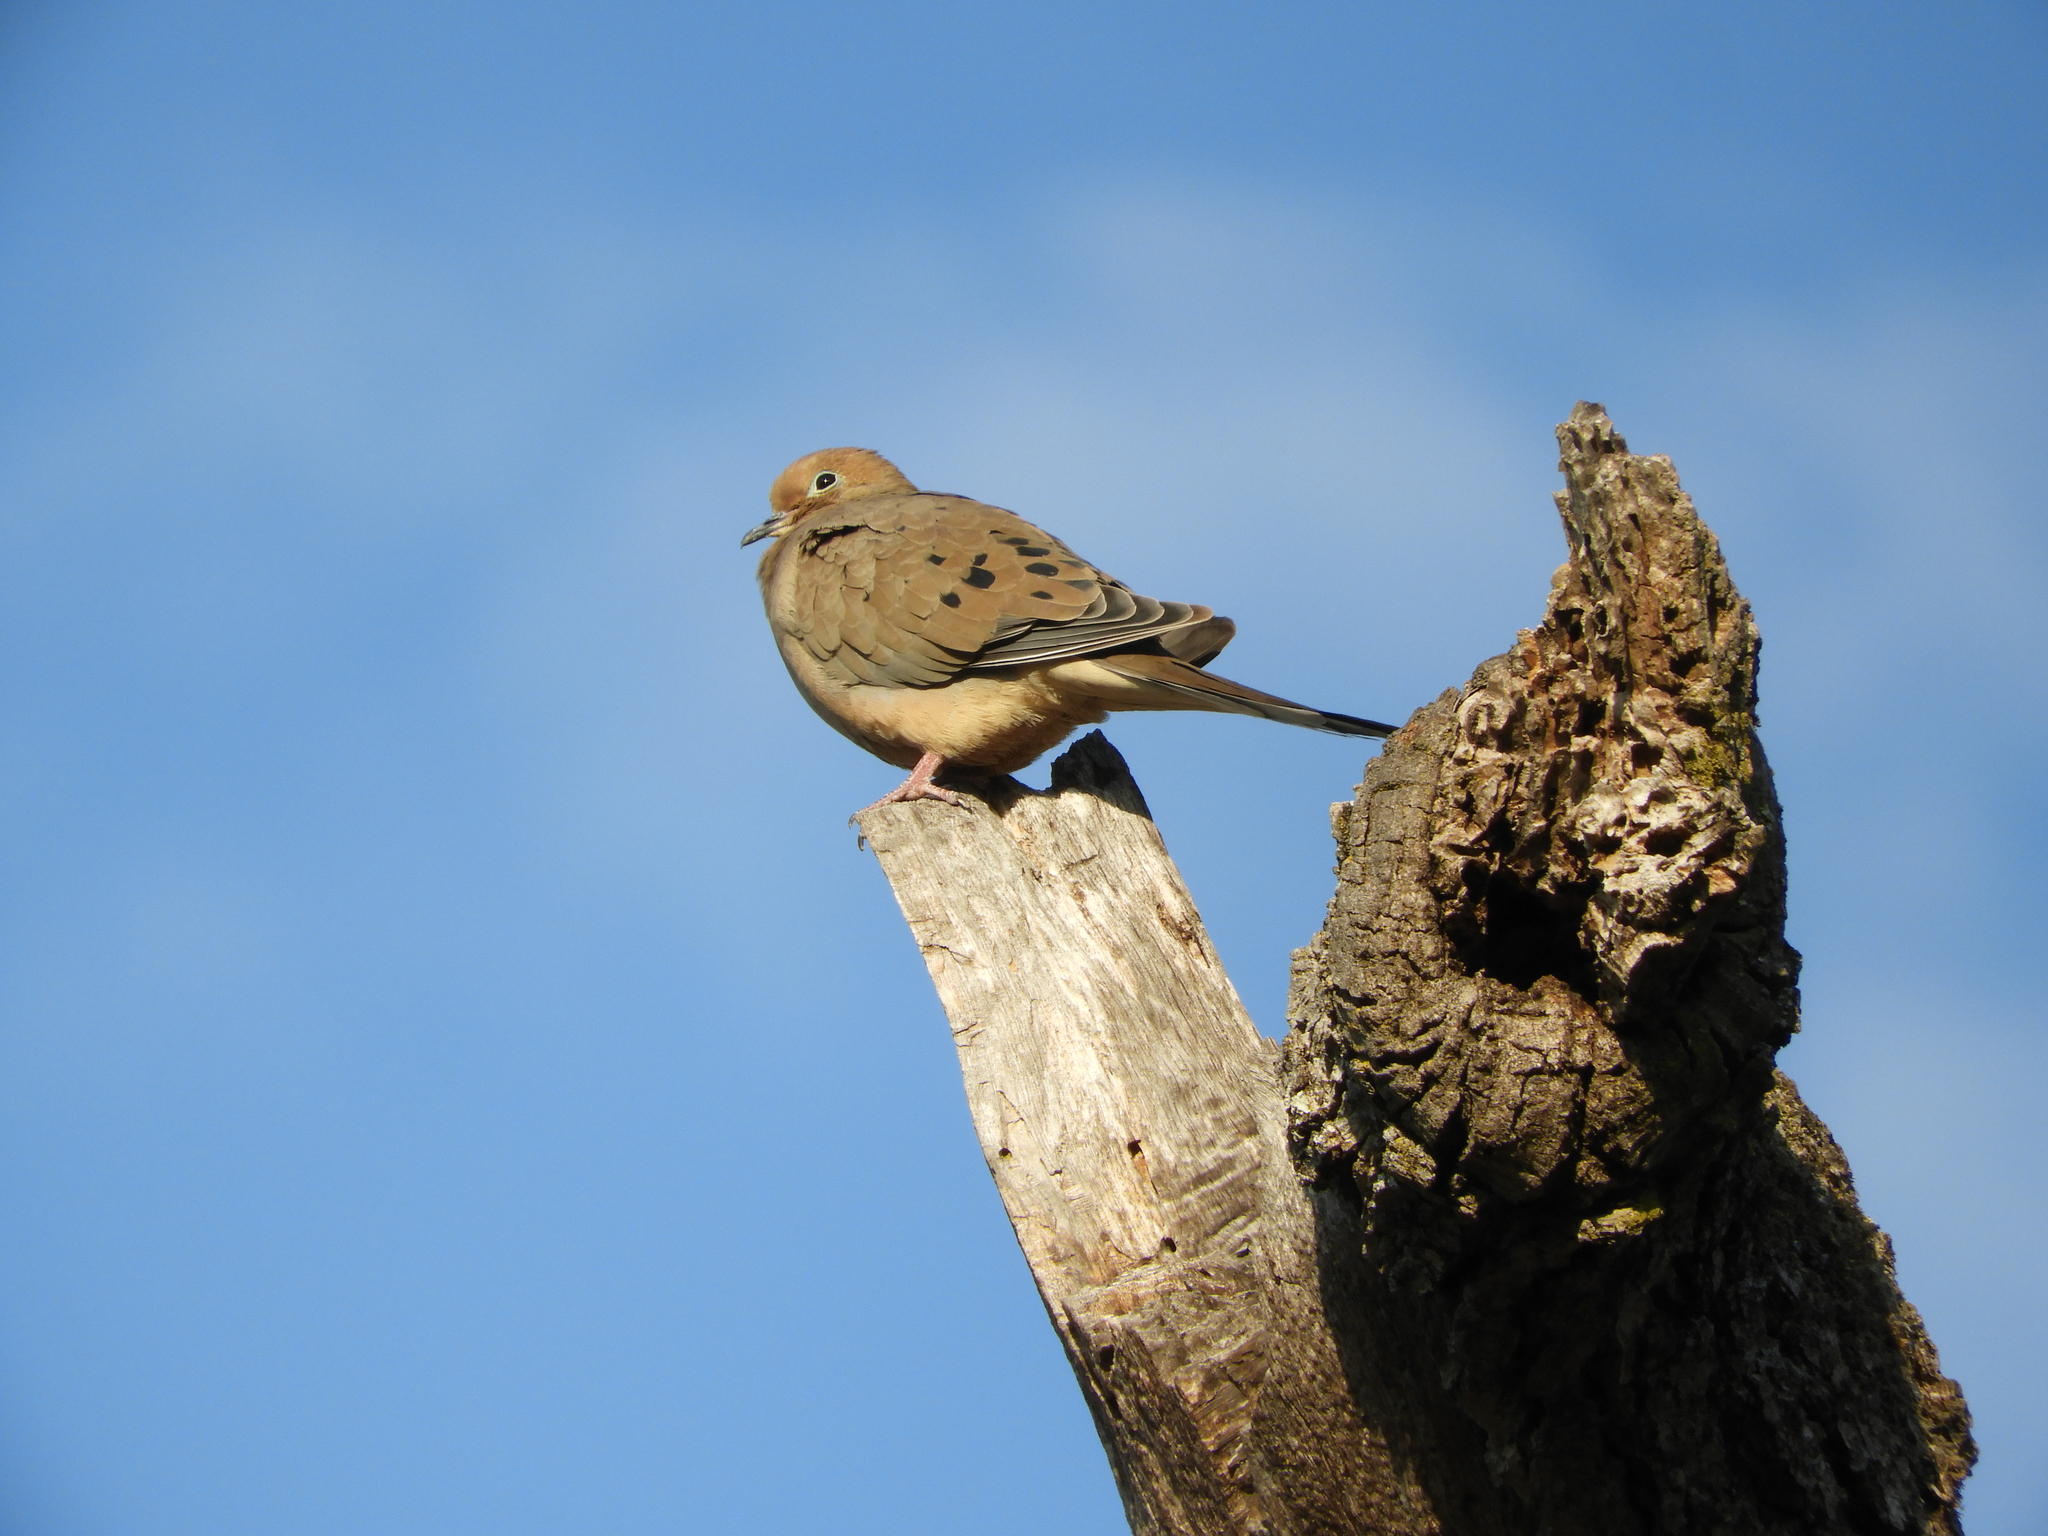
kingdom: Animalia
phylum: Chordata
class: Aves
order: Columbiformes
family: Columbidae
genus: Zenaida
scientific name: Zenaida macroura
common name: Mourning dove
